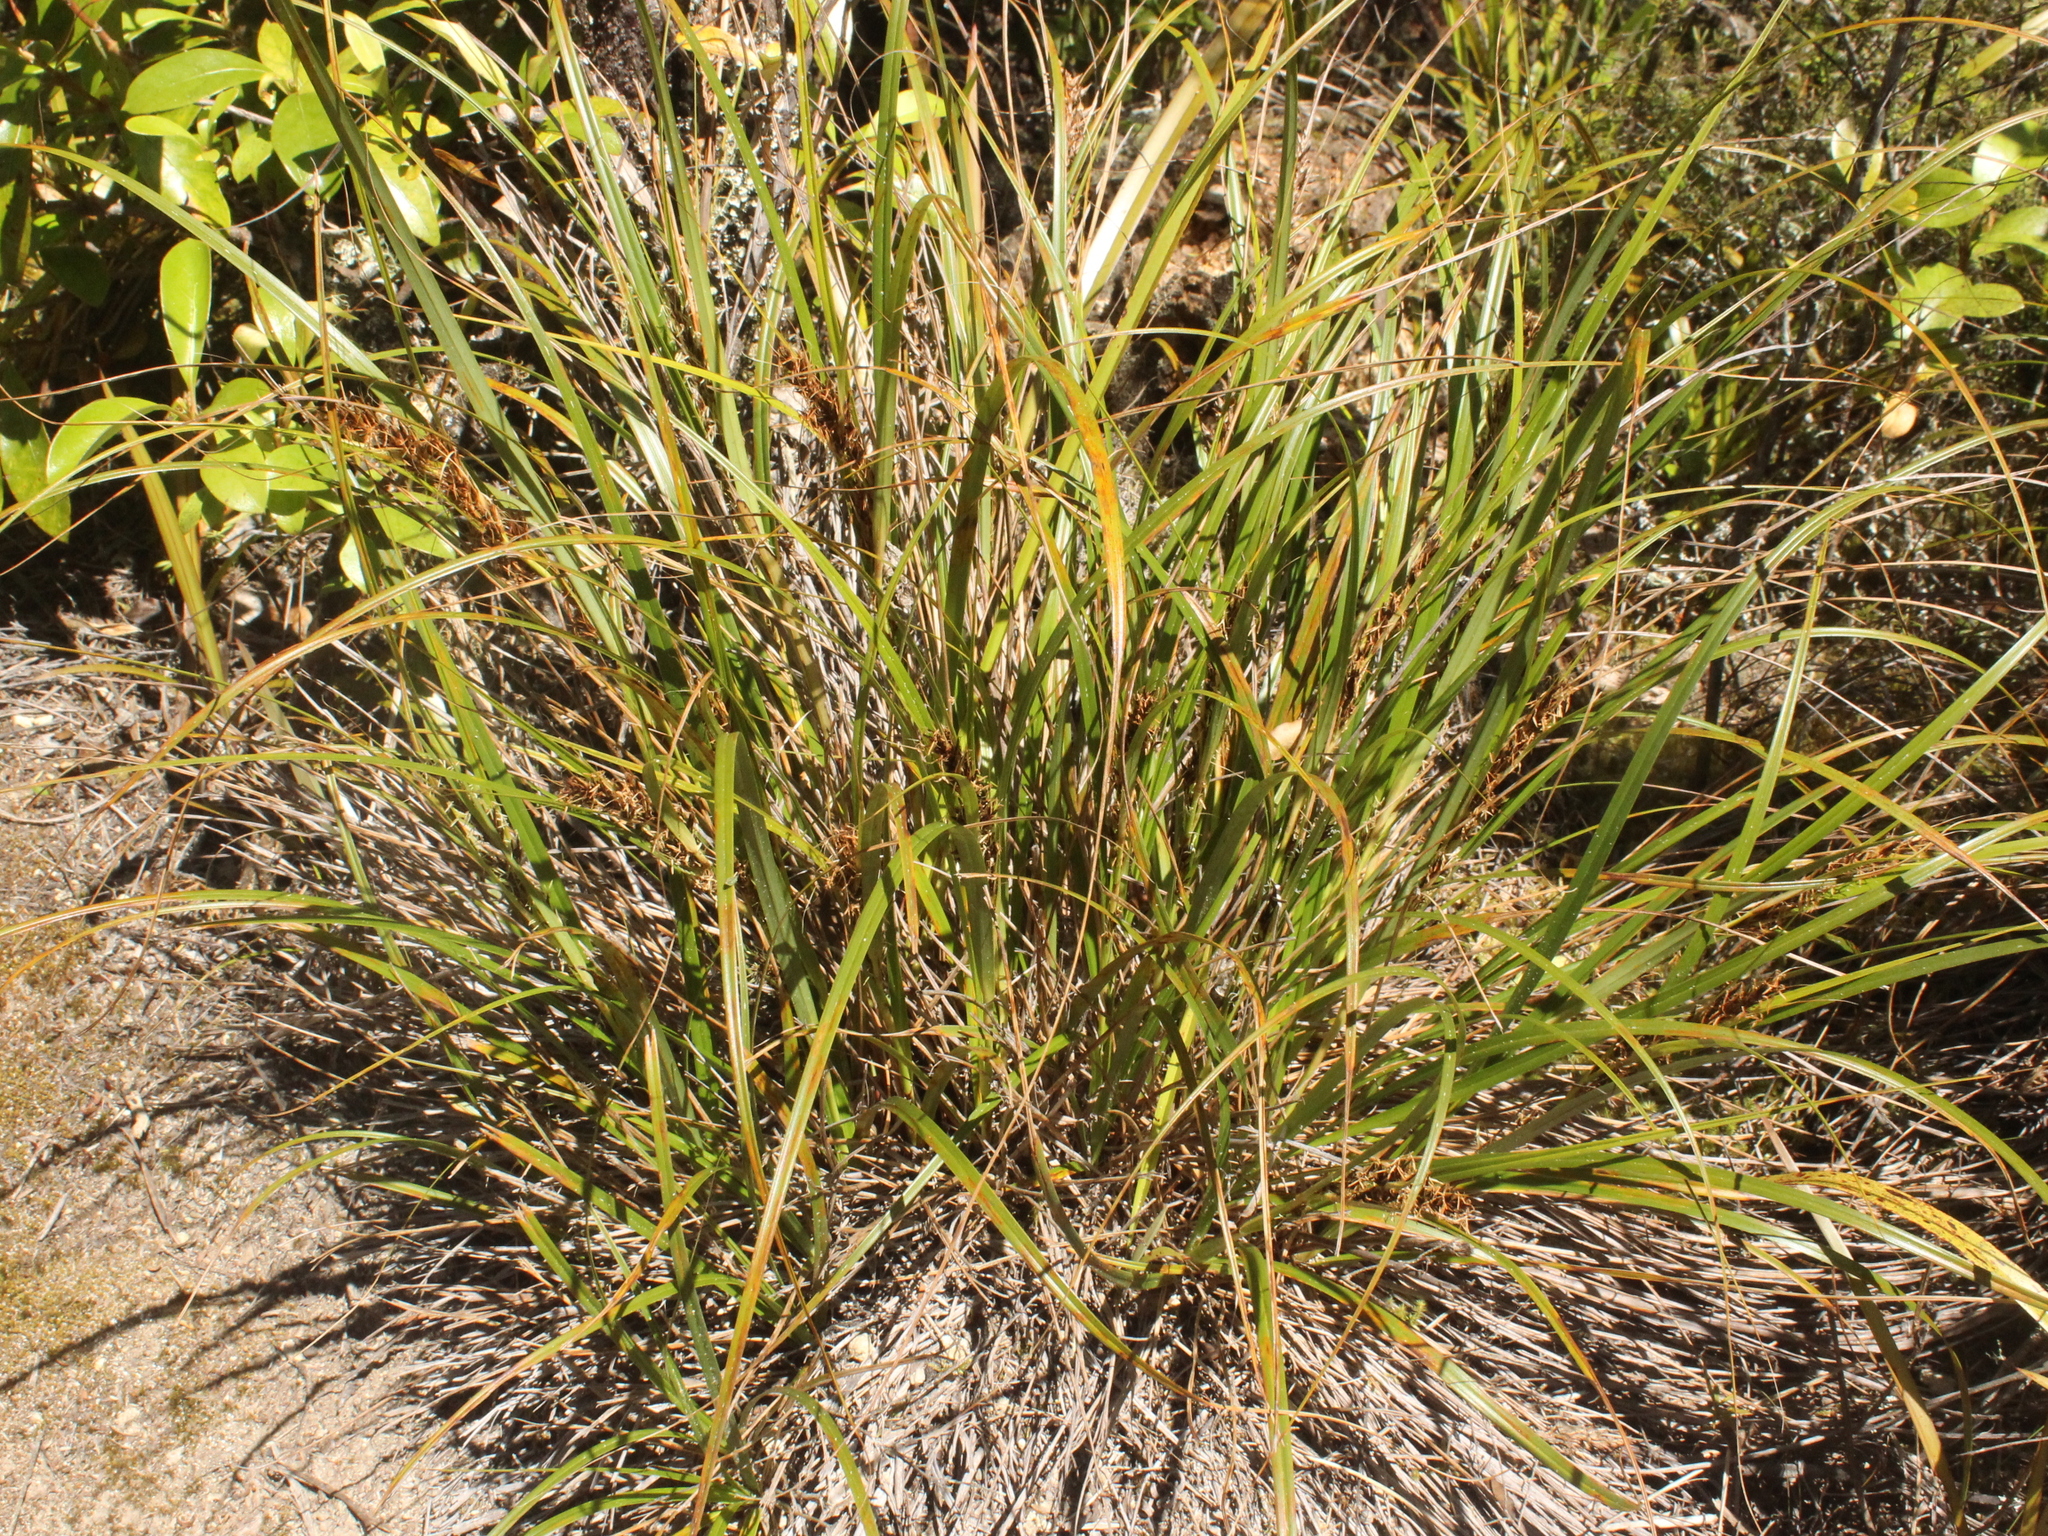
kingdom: Plantae
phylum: Tracheophyta
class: Liliopsida
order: Poales
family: Cyperaceae
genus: Morelotia
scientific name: Morelotia affinis
